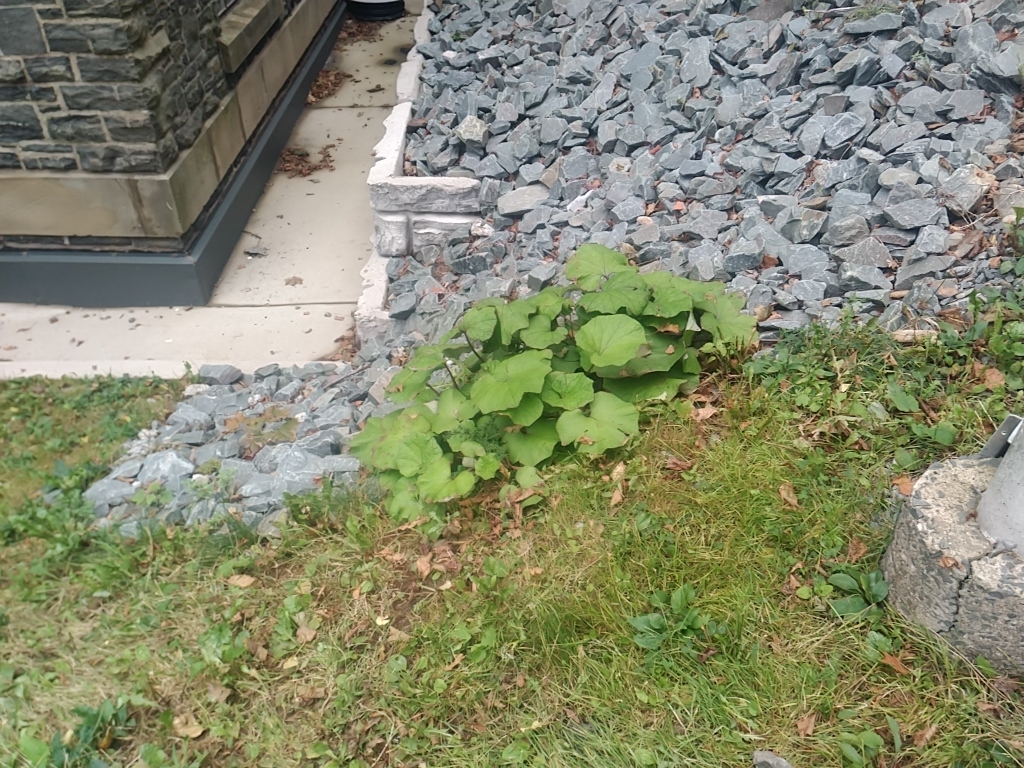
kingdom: Plantae
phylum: Tracheophyta
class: Magnoliopsida
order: Asterales
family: Asteraceae
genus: Tussilago
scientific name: Tussilago farfara
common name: Coltsfoot
